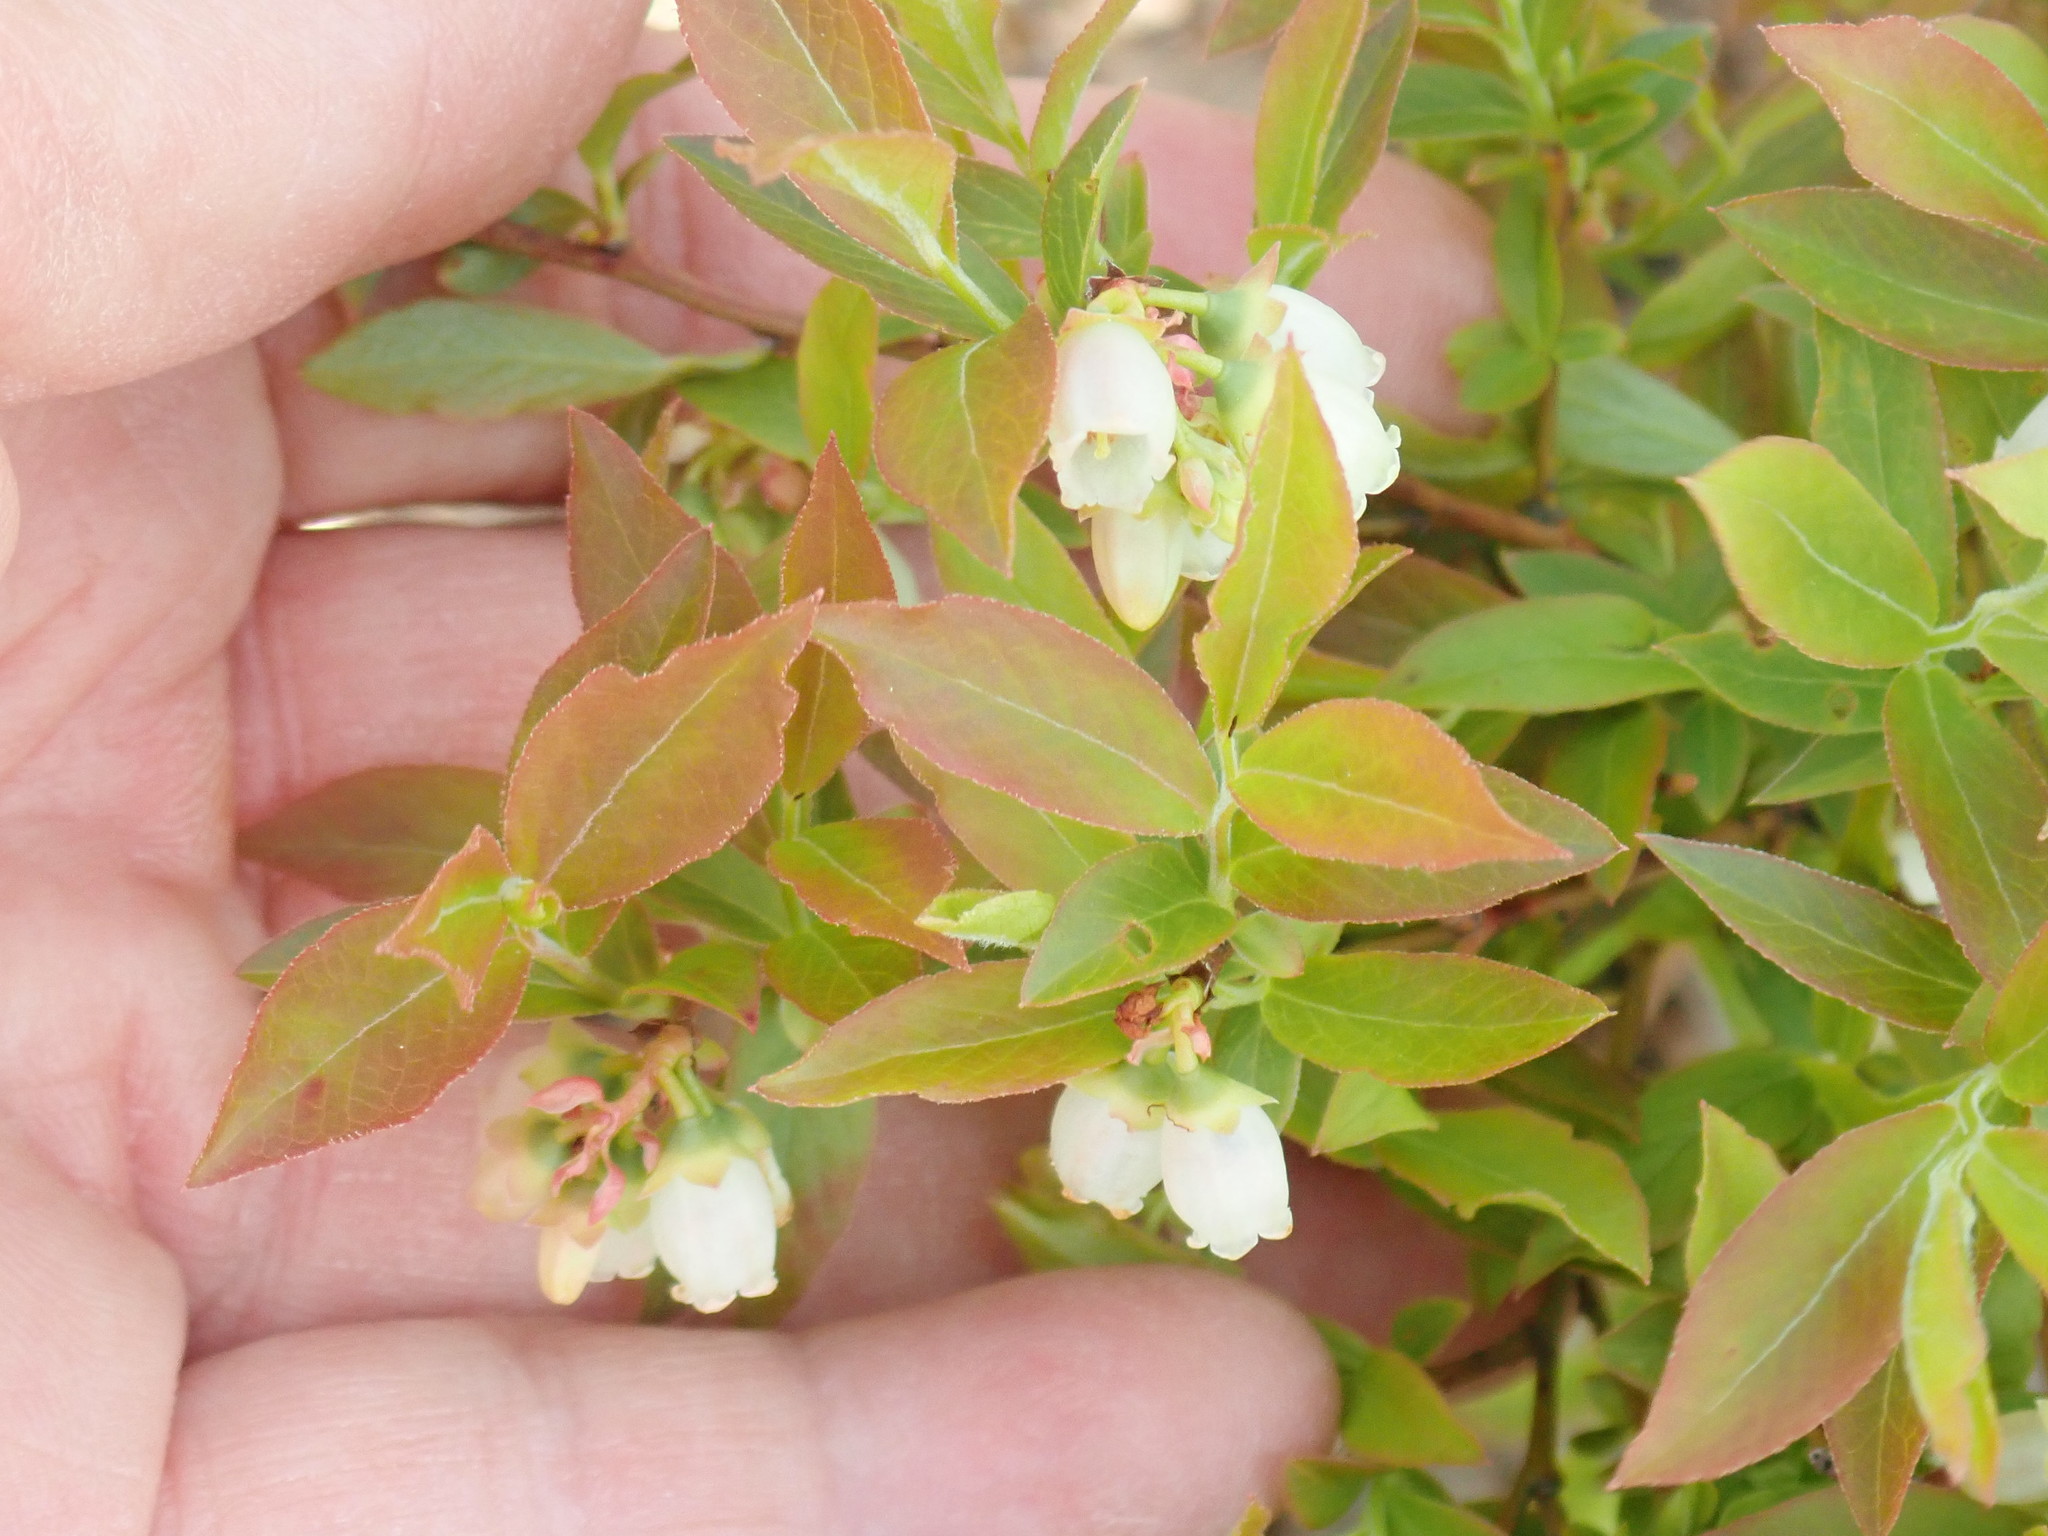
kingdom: Plantae
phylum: Tracheophyta
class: Magnoliopsida
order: Ericales
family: Ericaceae
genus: Vaccinium
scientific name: Vaccinium angustifolium
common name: Early lowbush blueberry
